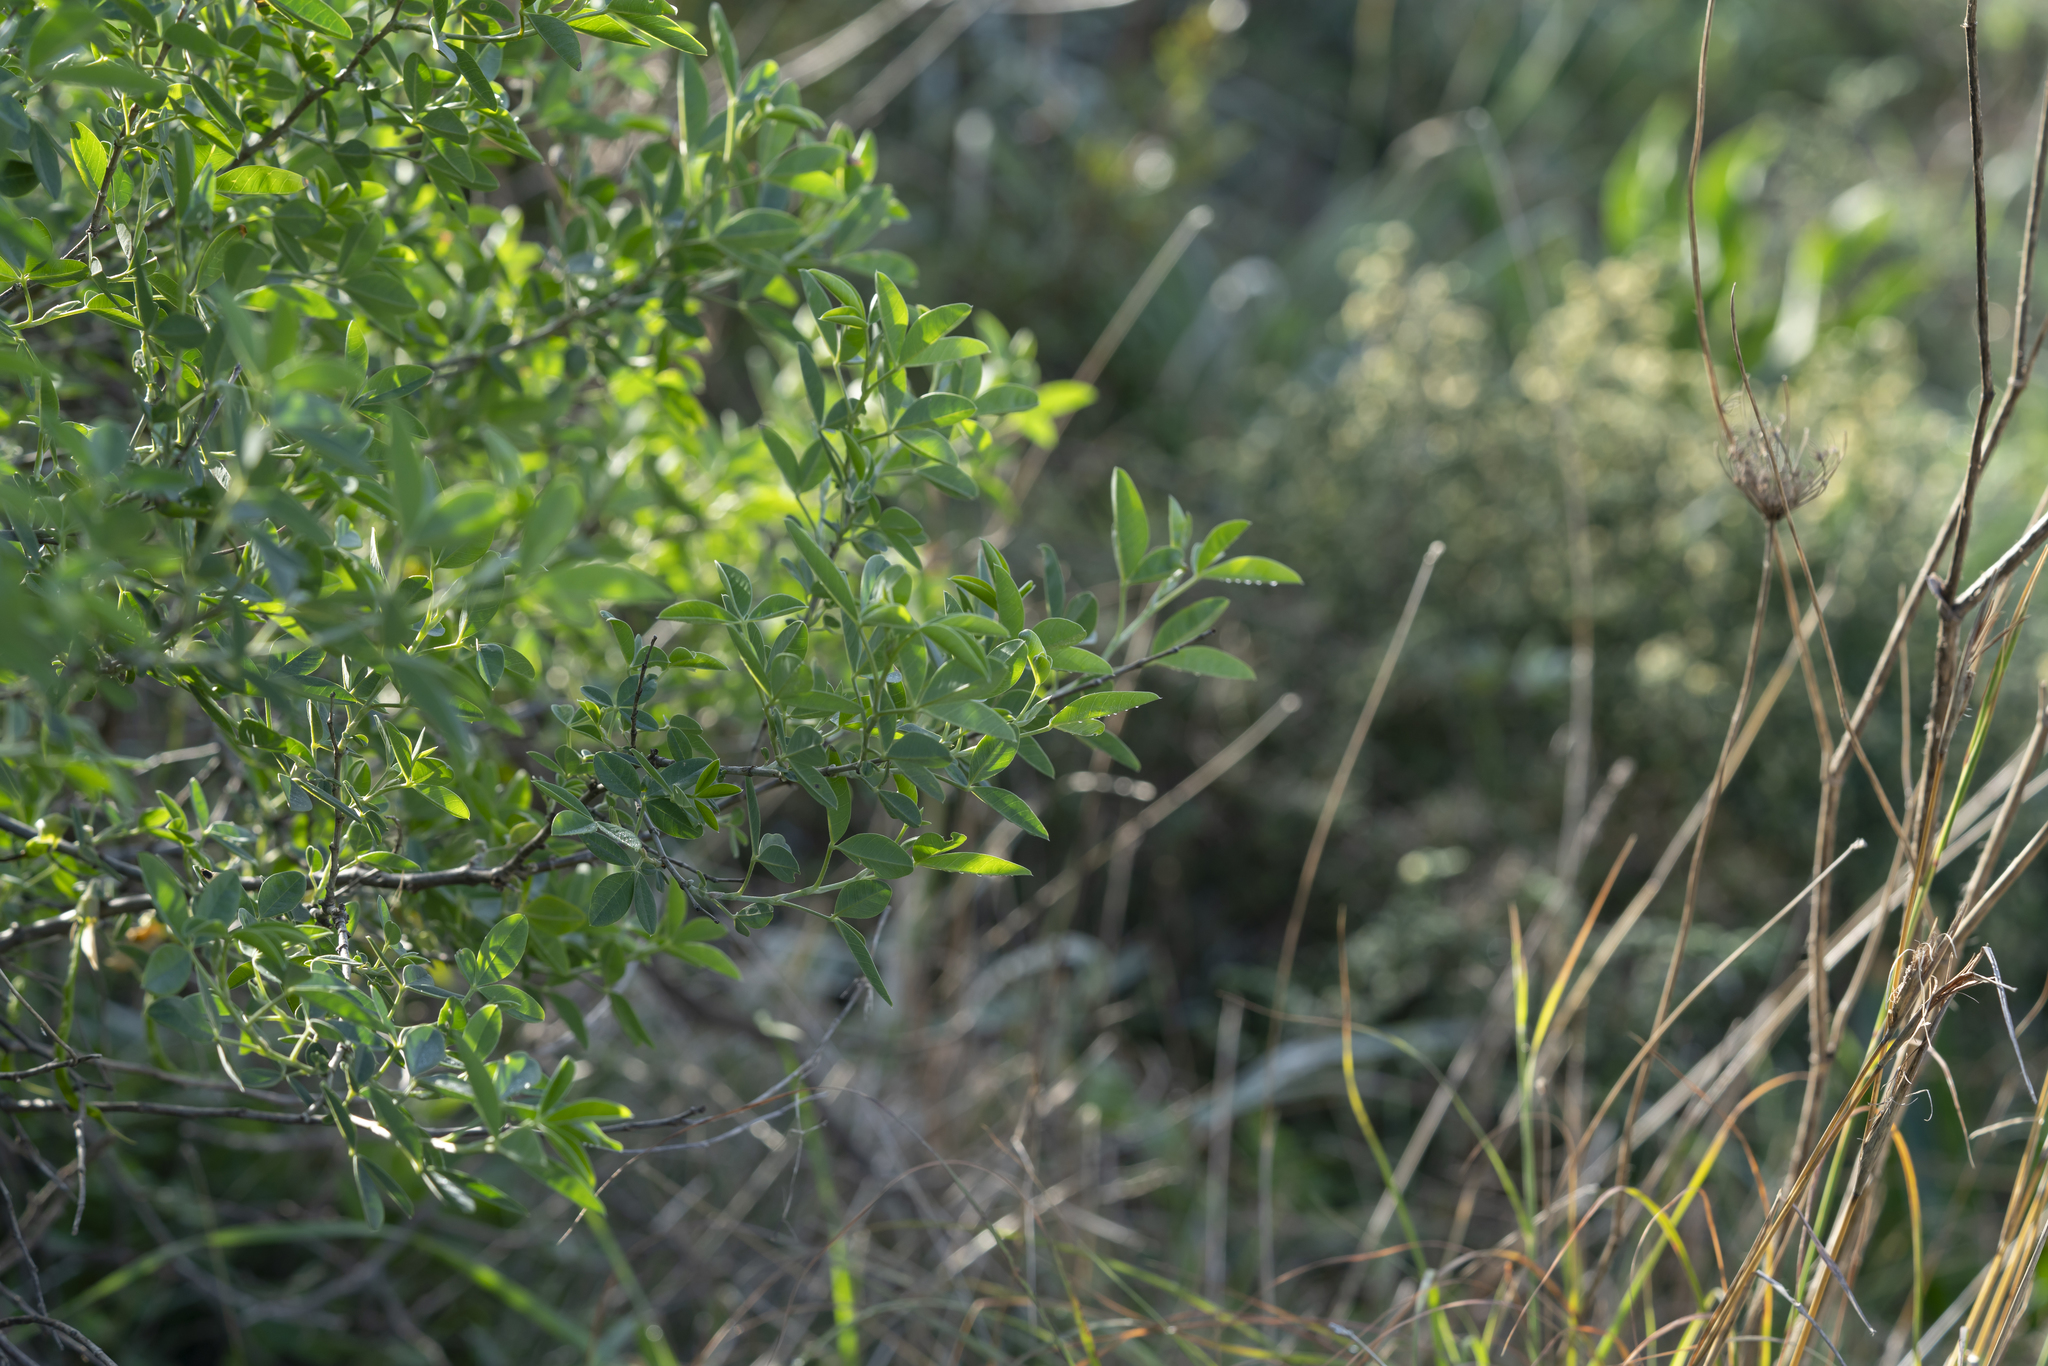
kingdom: Plantae
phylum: Tracheophyta
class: Magnoliopsida
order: Fabales
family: Fabaceae
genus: Anagyris
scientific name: Anagyris foetida
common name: Stinking bean trefoil
